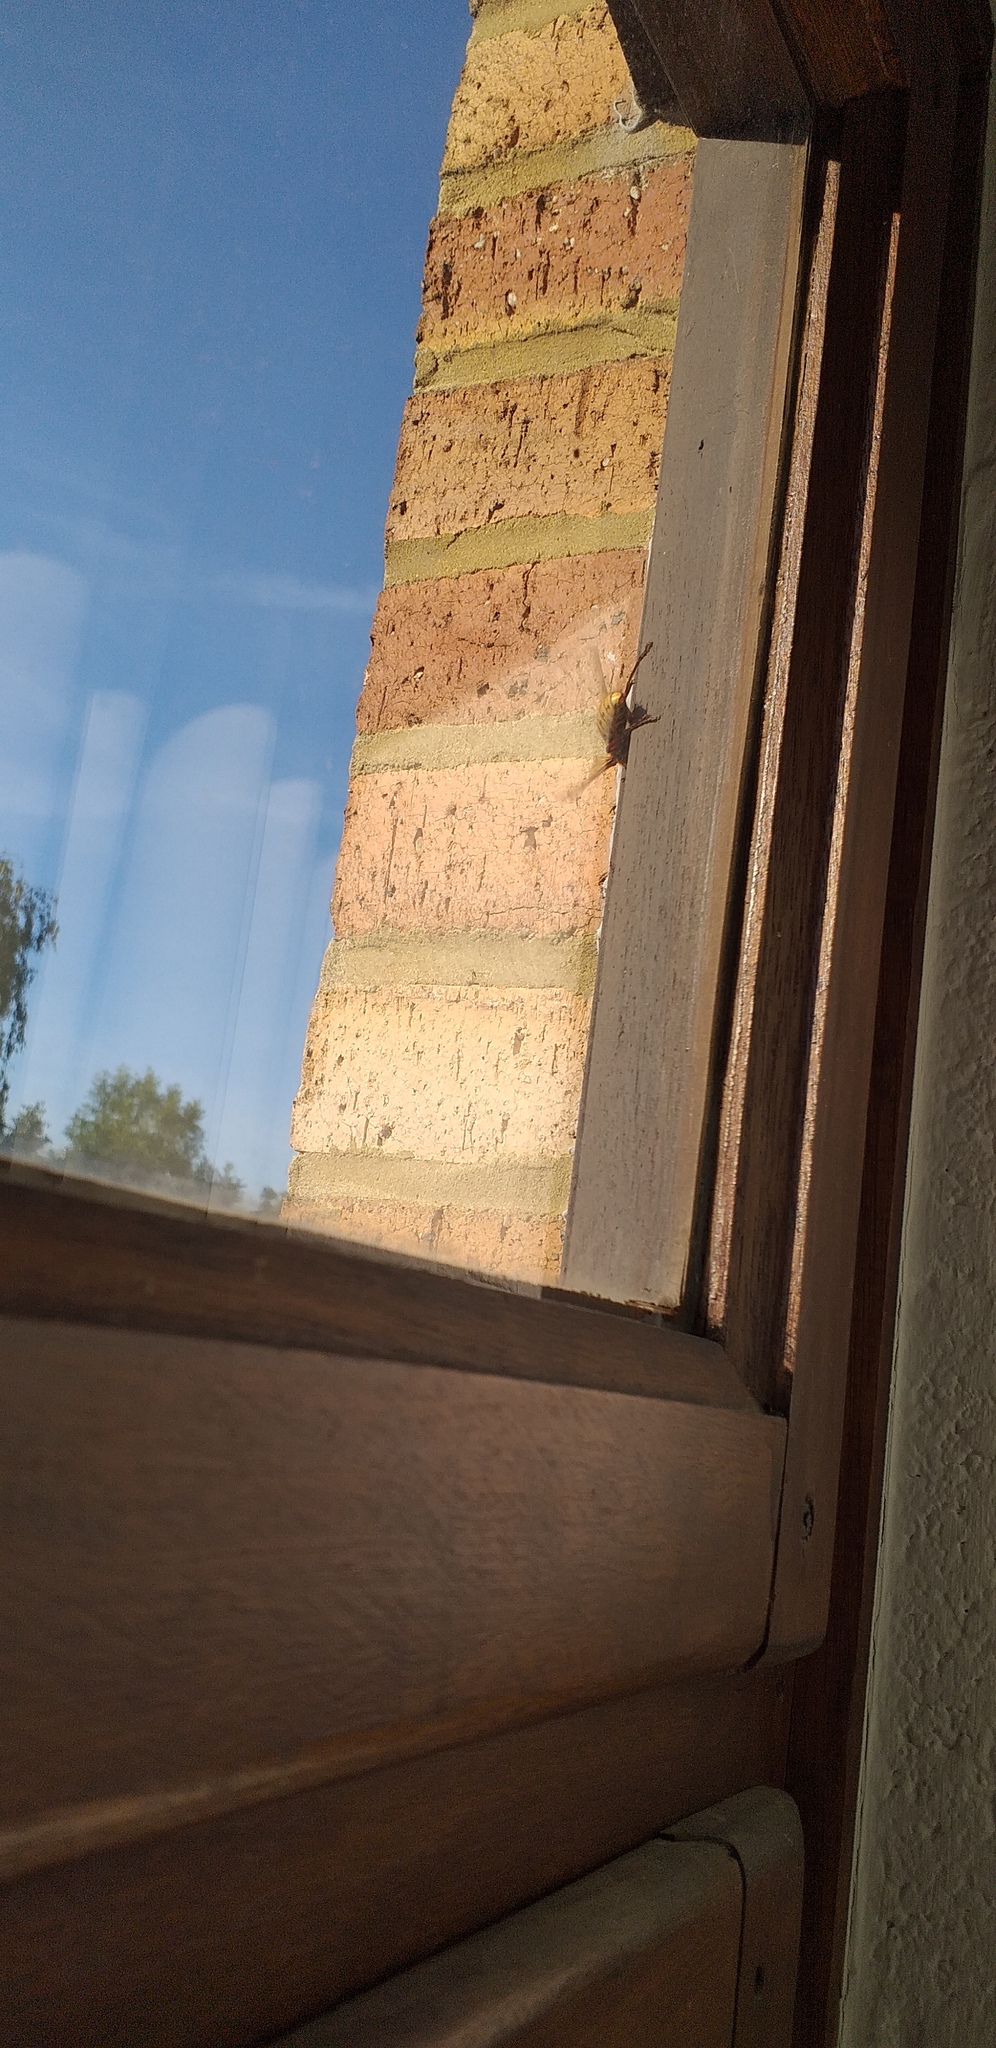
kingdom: Animalia
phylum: Arthropoda
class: Insecta
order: Hymenoptera
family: Vespidae
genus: Vespa
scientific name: Vespa crabro
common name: Hornet
